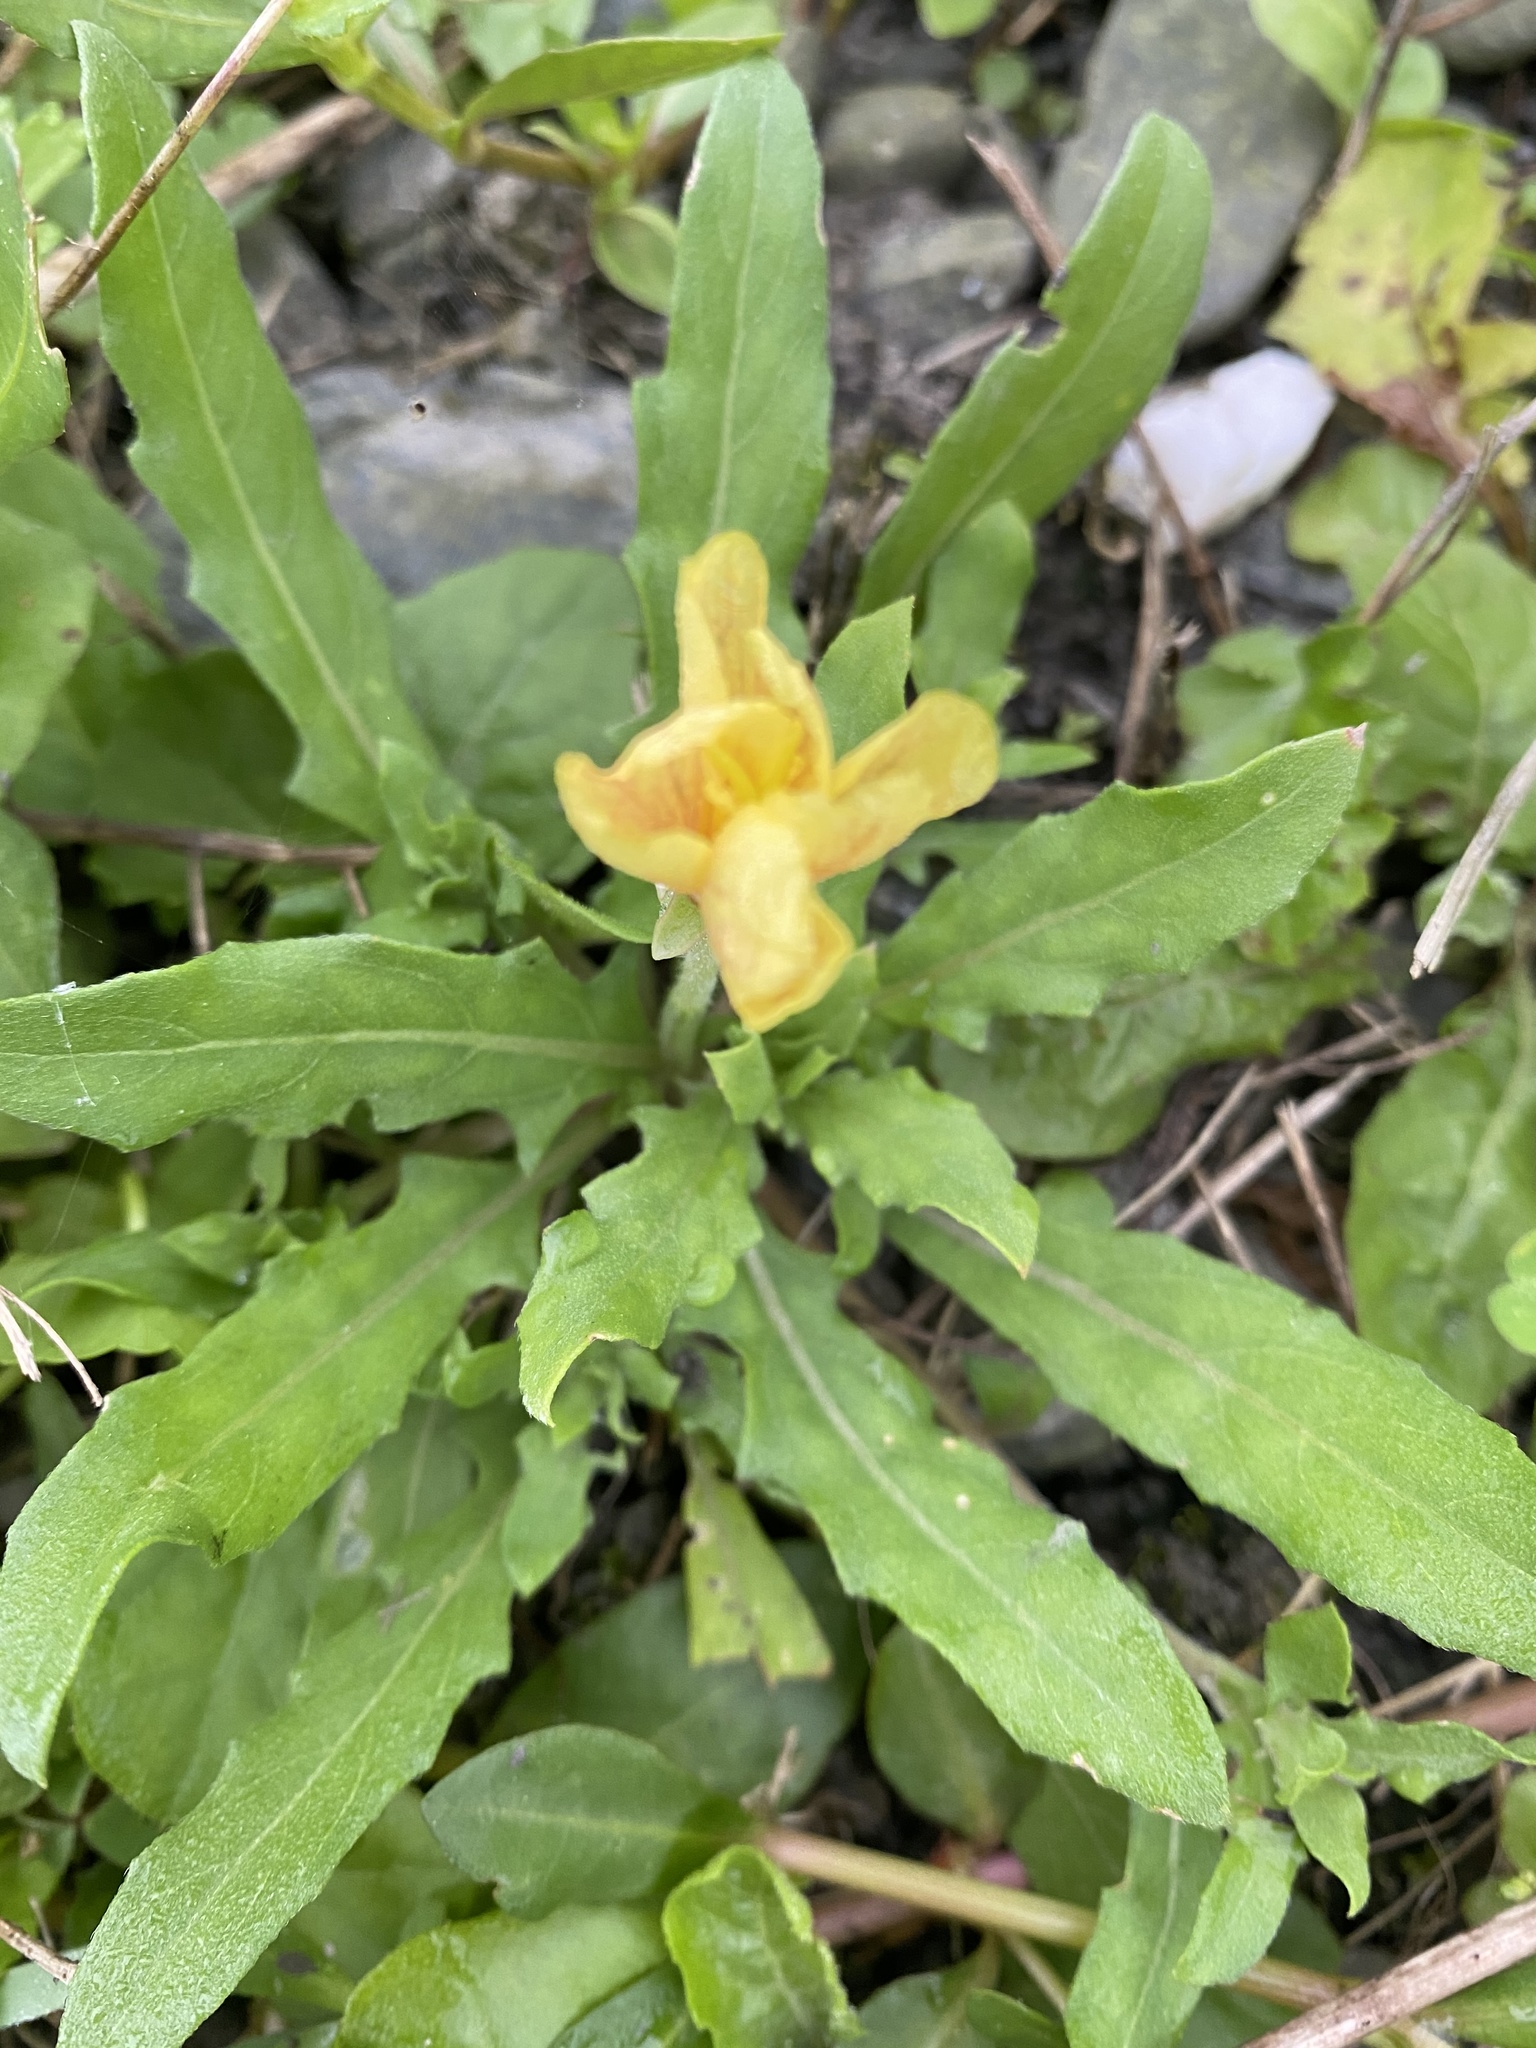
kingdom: Plantae
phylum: Tracheophyta
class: Magnoliopsida
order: Myrtales
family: Onagraceae
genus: Oenothera
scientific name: Oenothera laciniata
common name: Cut-leaved evening-primrose
